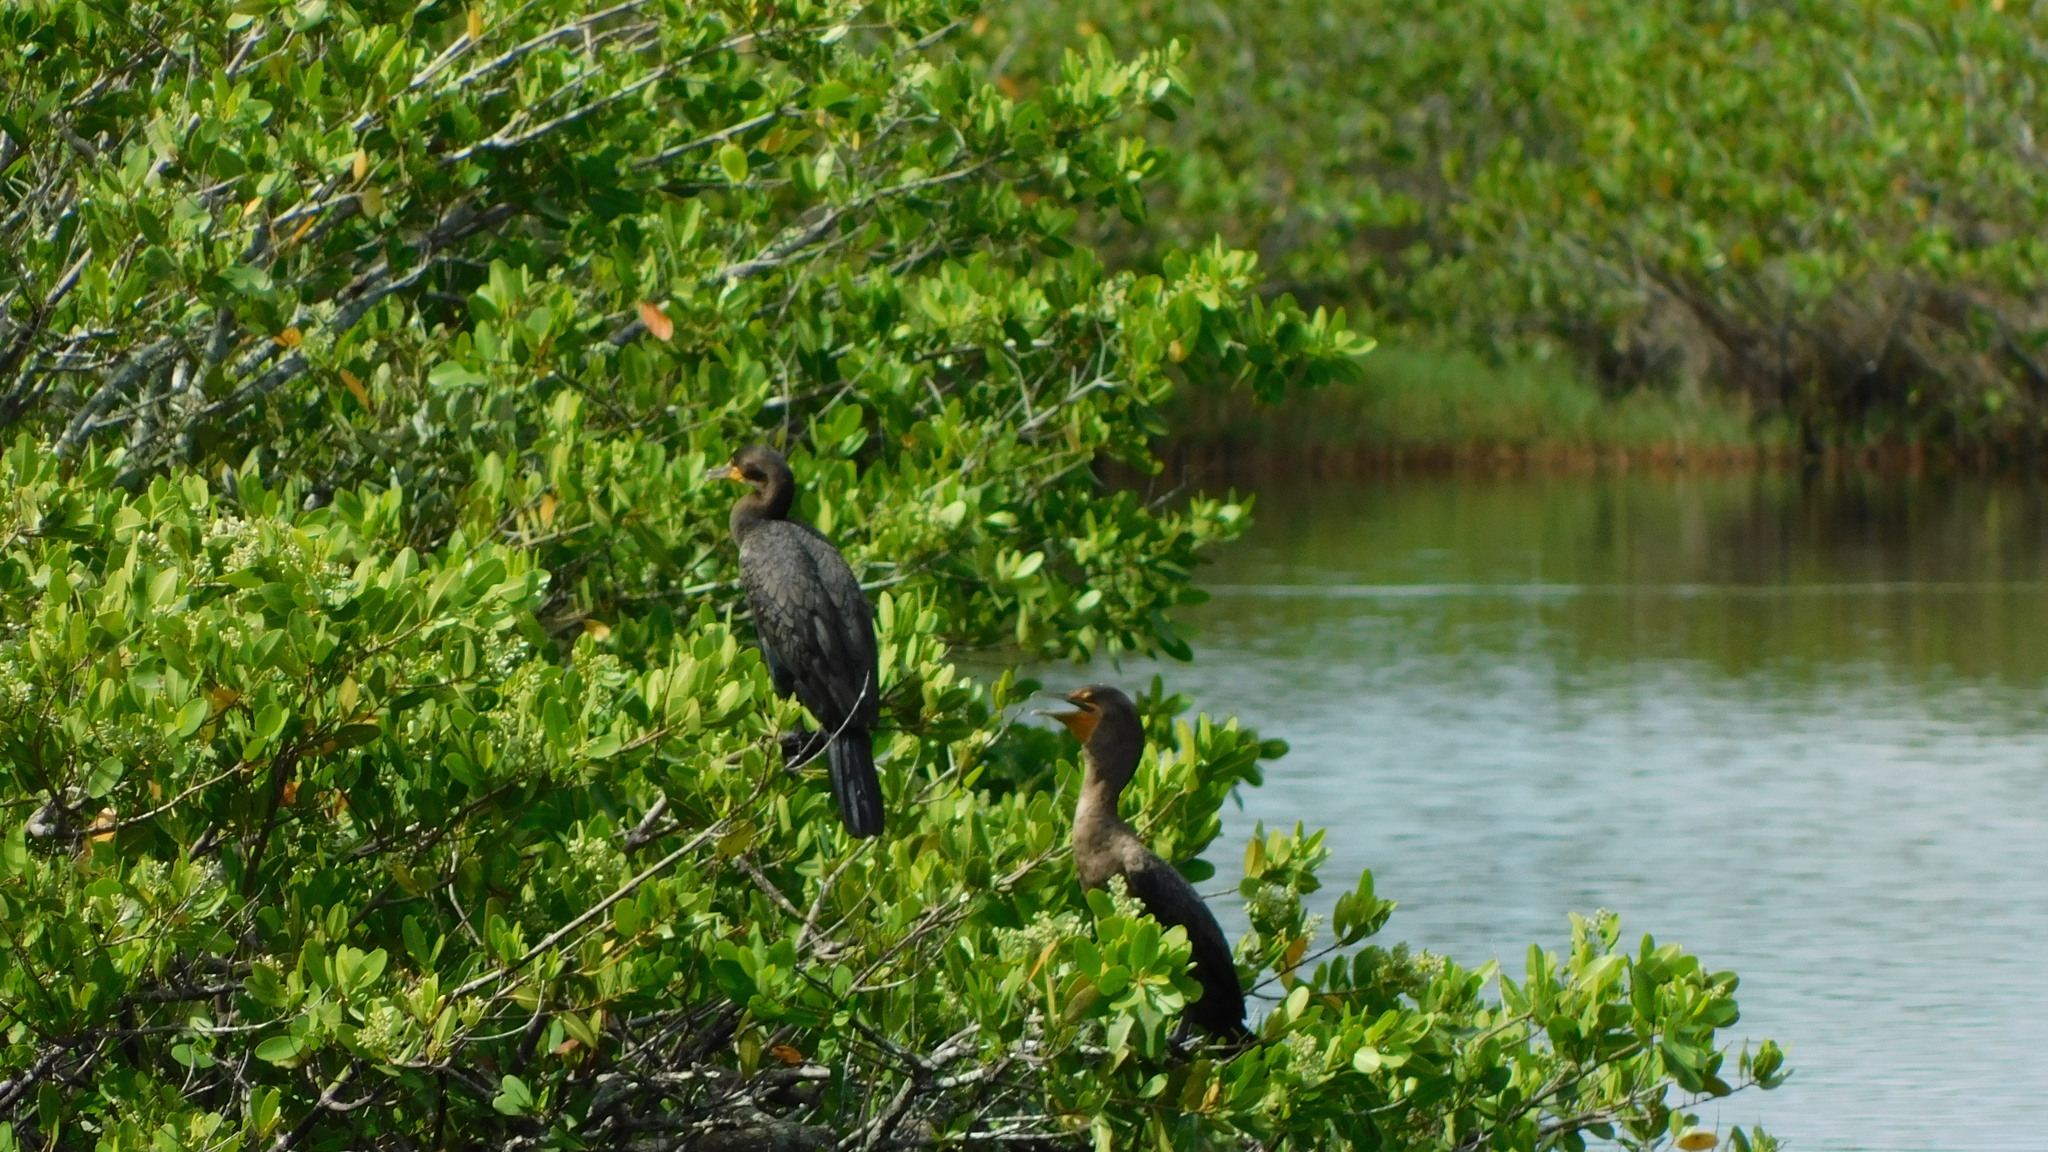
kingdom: Animalia
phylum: Chordata
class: Aves
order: Suliformes
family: Phalacrocoracidae
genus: Phalacrocorax
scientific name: Phalacrocorax auritus
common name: Double-crested cormorant
